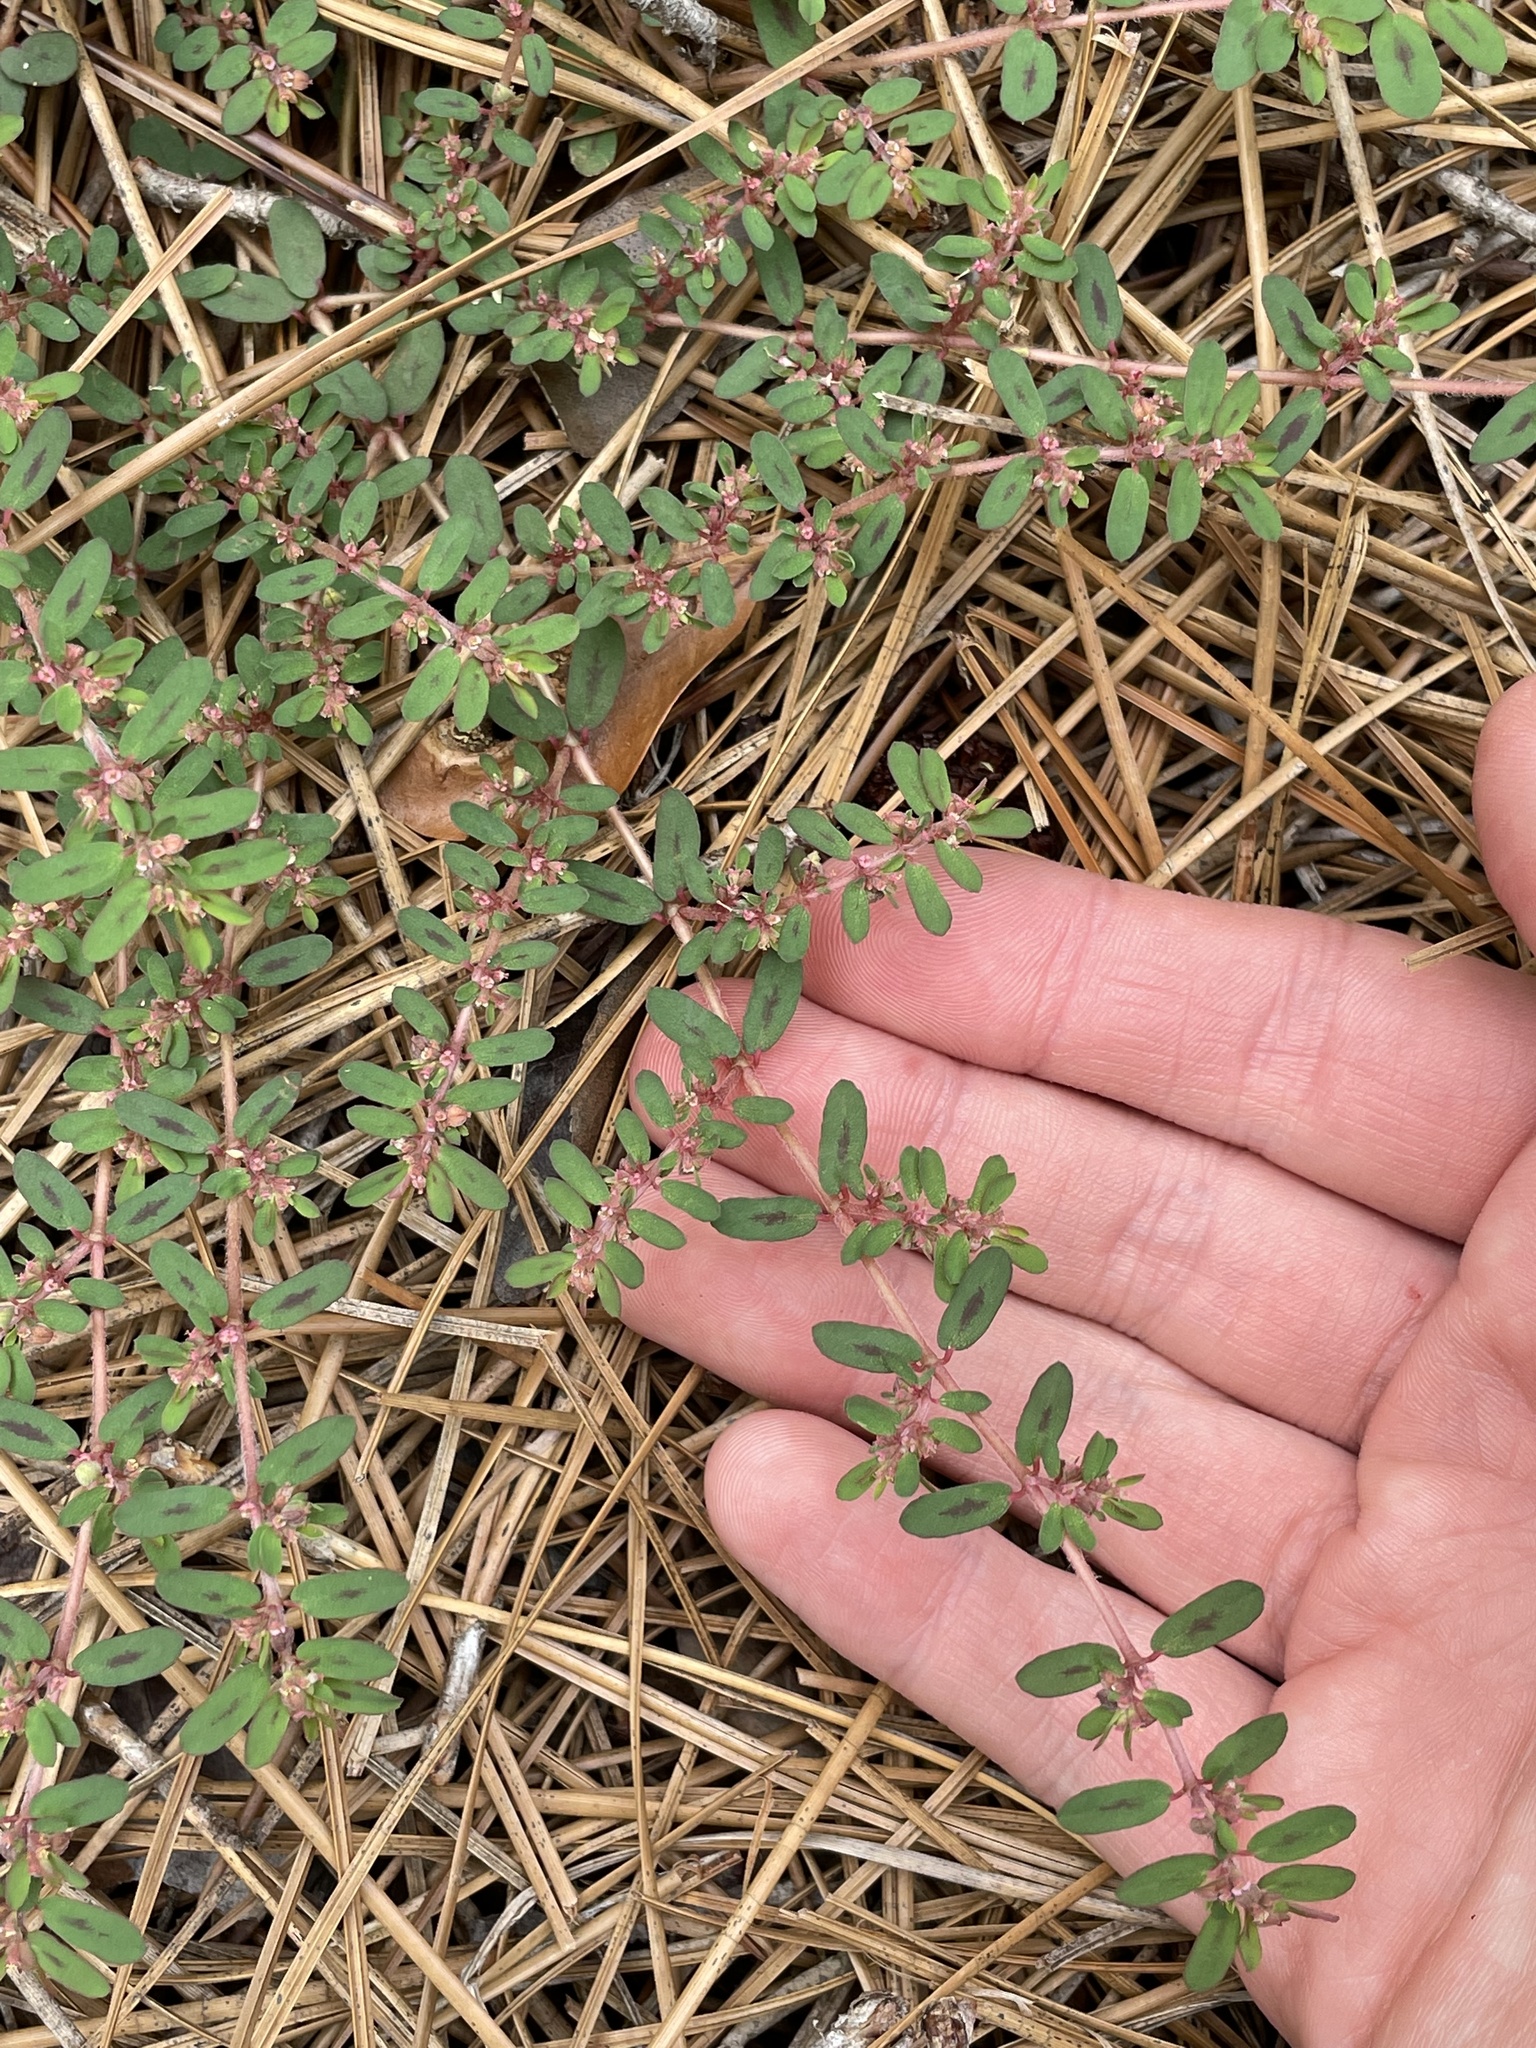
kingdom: Plantae
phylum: Tracheophyta
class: Magnoliopsida
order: Malpighiales
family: Euphorbiaceae
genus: Euphorbia
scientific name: Euphorbia maculata
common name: Spotted spurge
